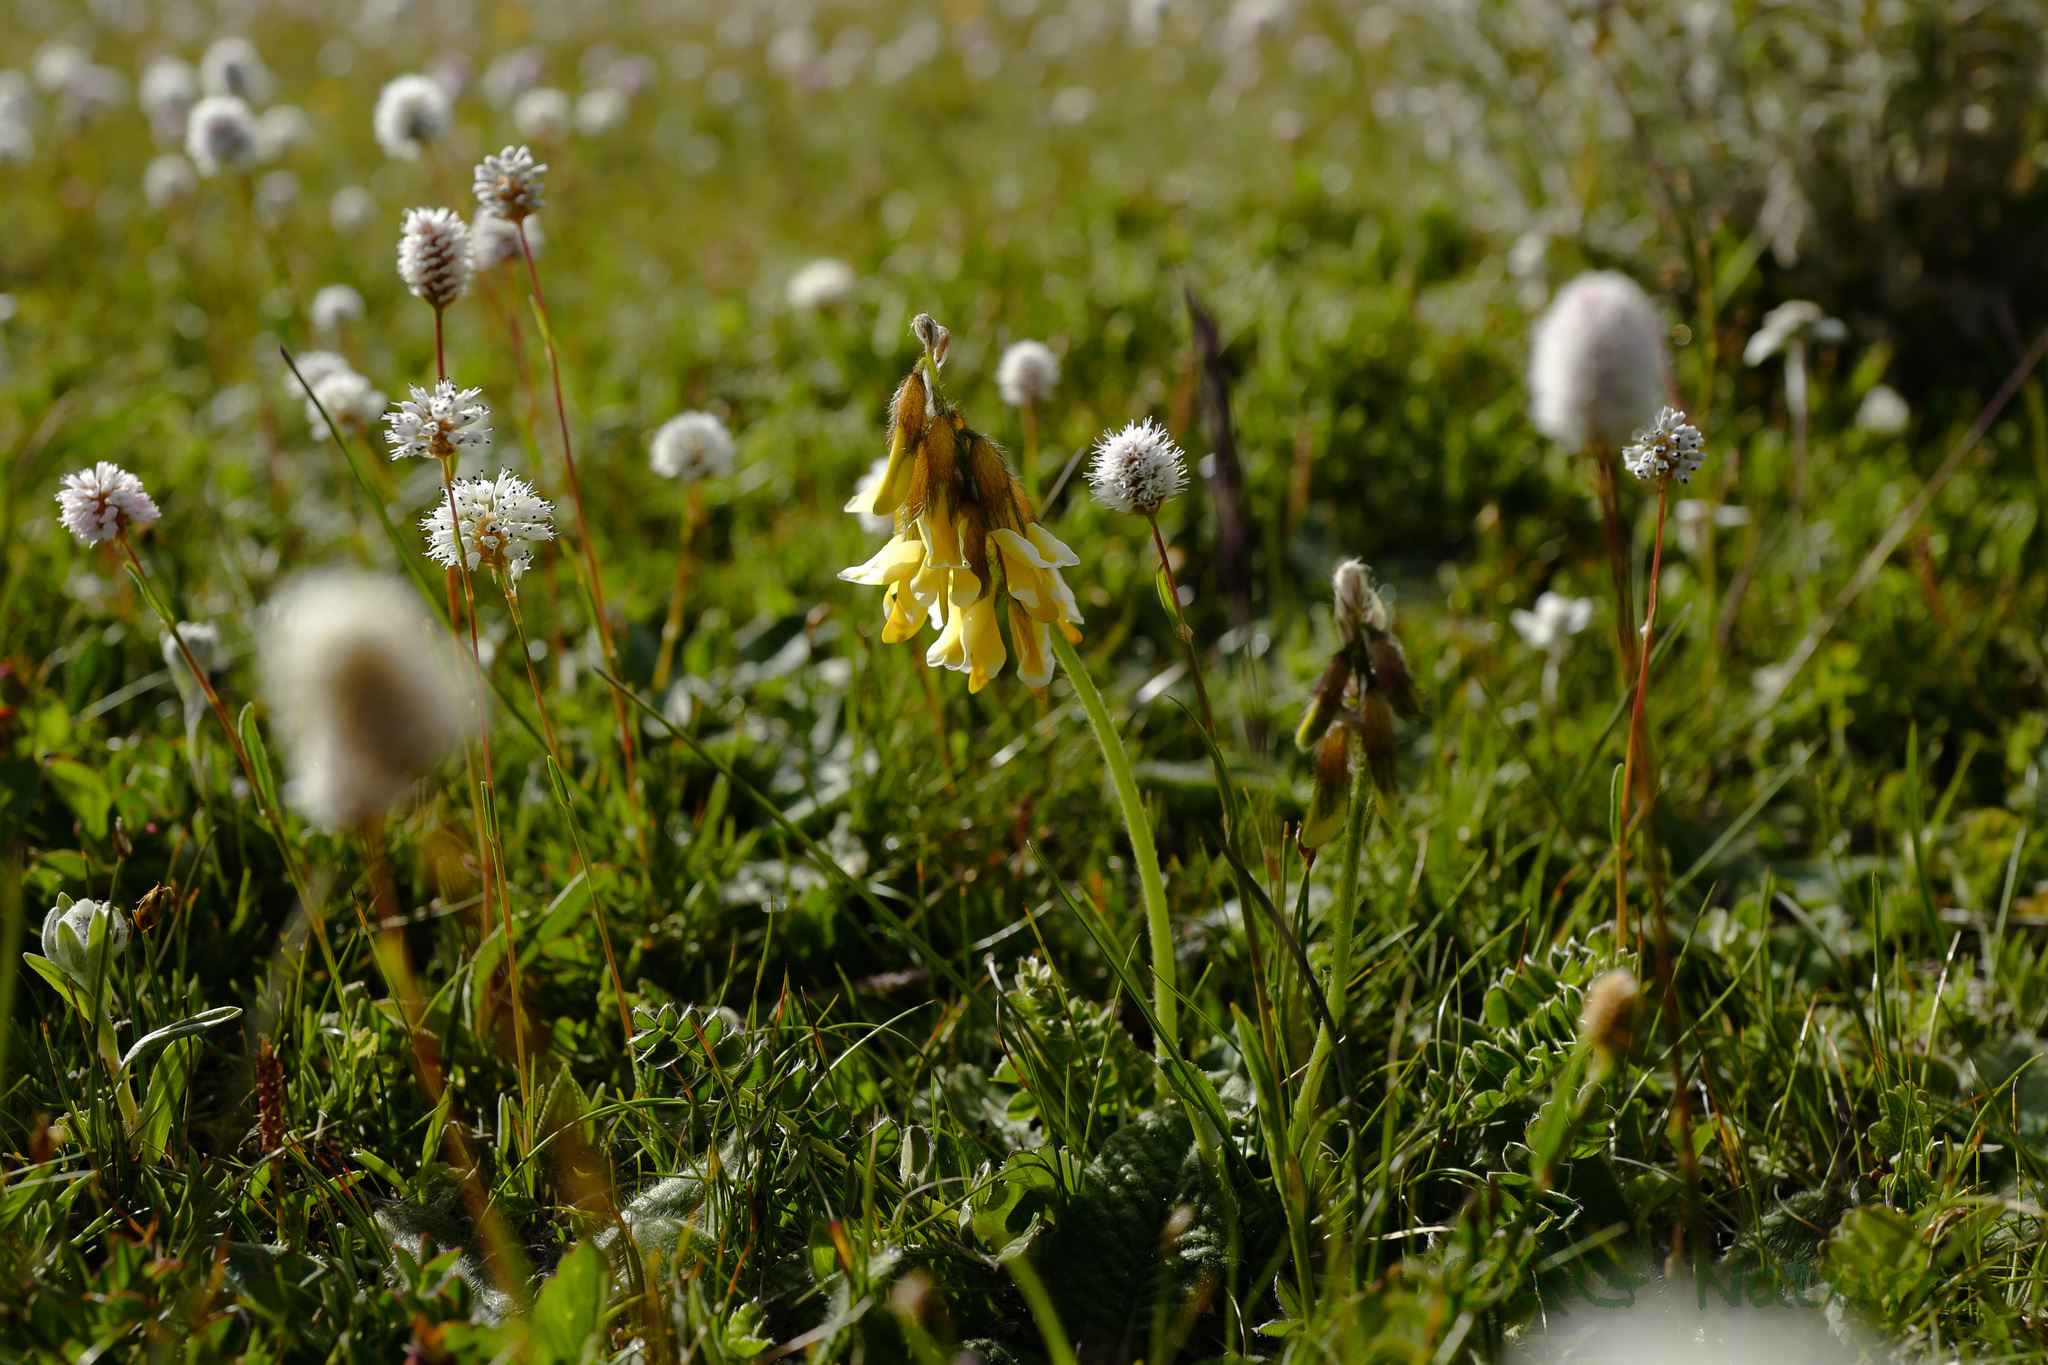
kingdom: Plantae
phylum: Tracheophyta
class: Magnoliopsida
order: Fabales
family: Fabaceae
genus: Astragalus
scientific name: Astragalus yunnanensis
